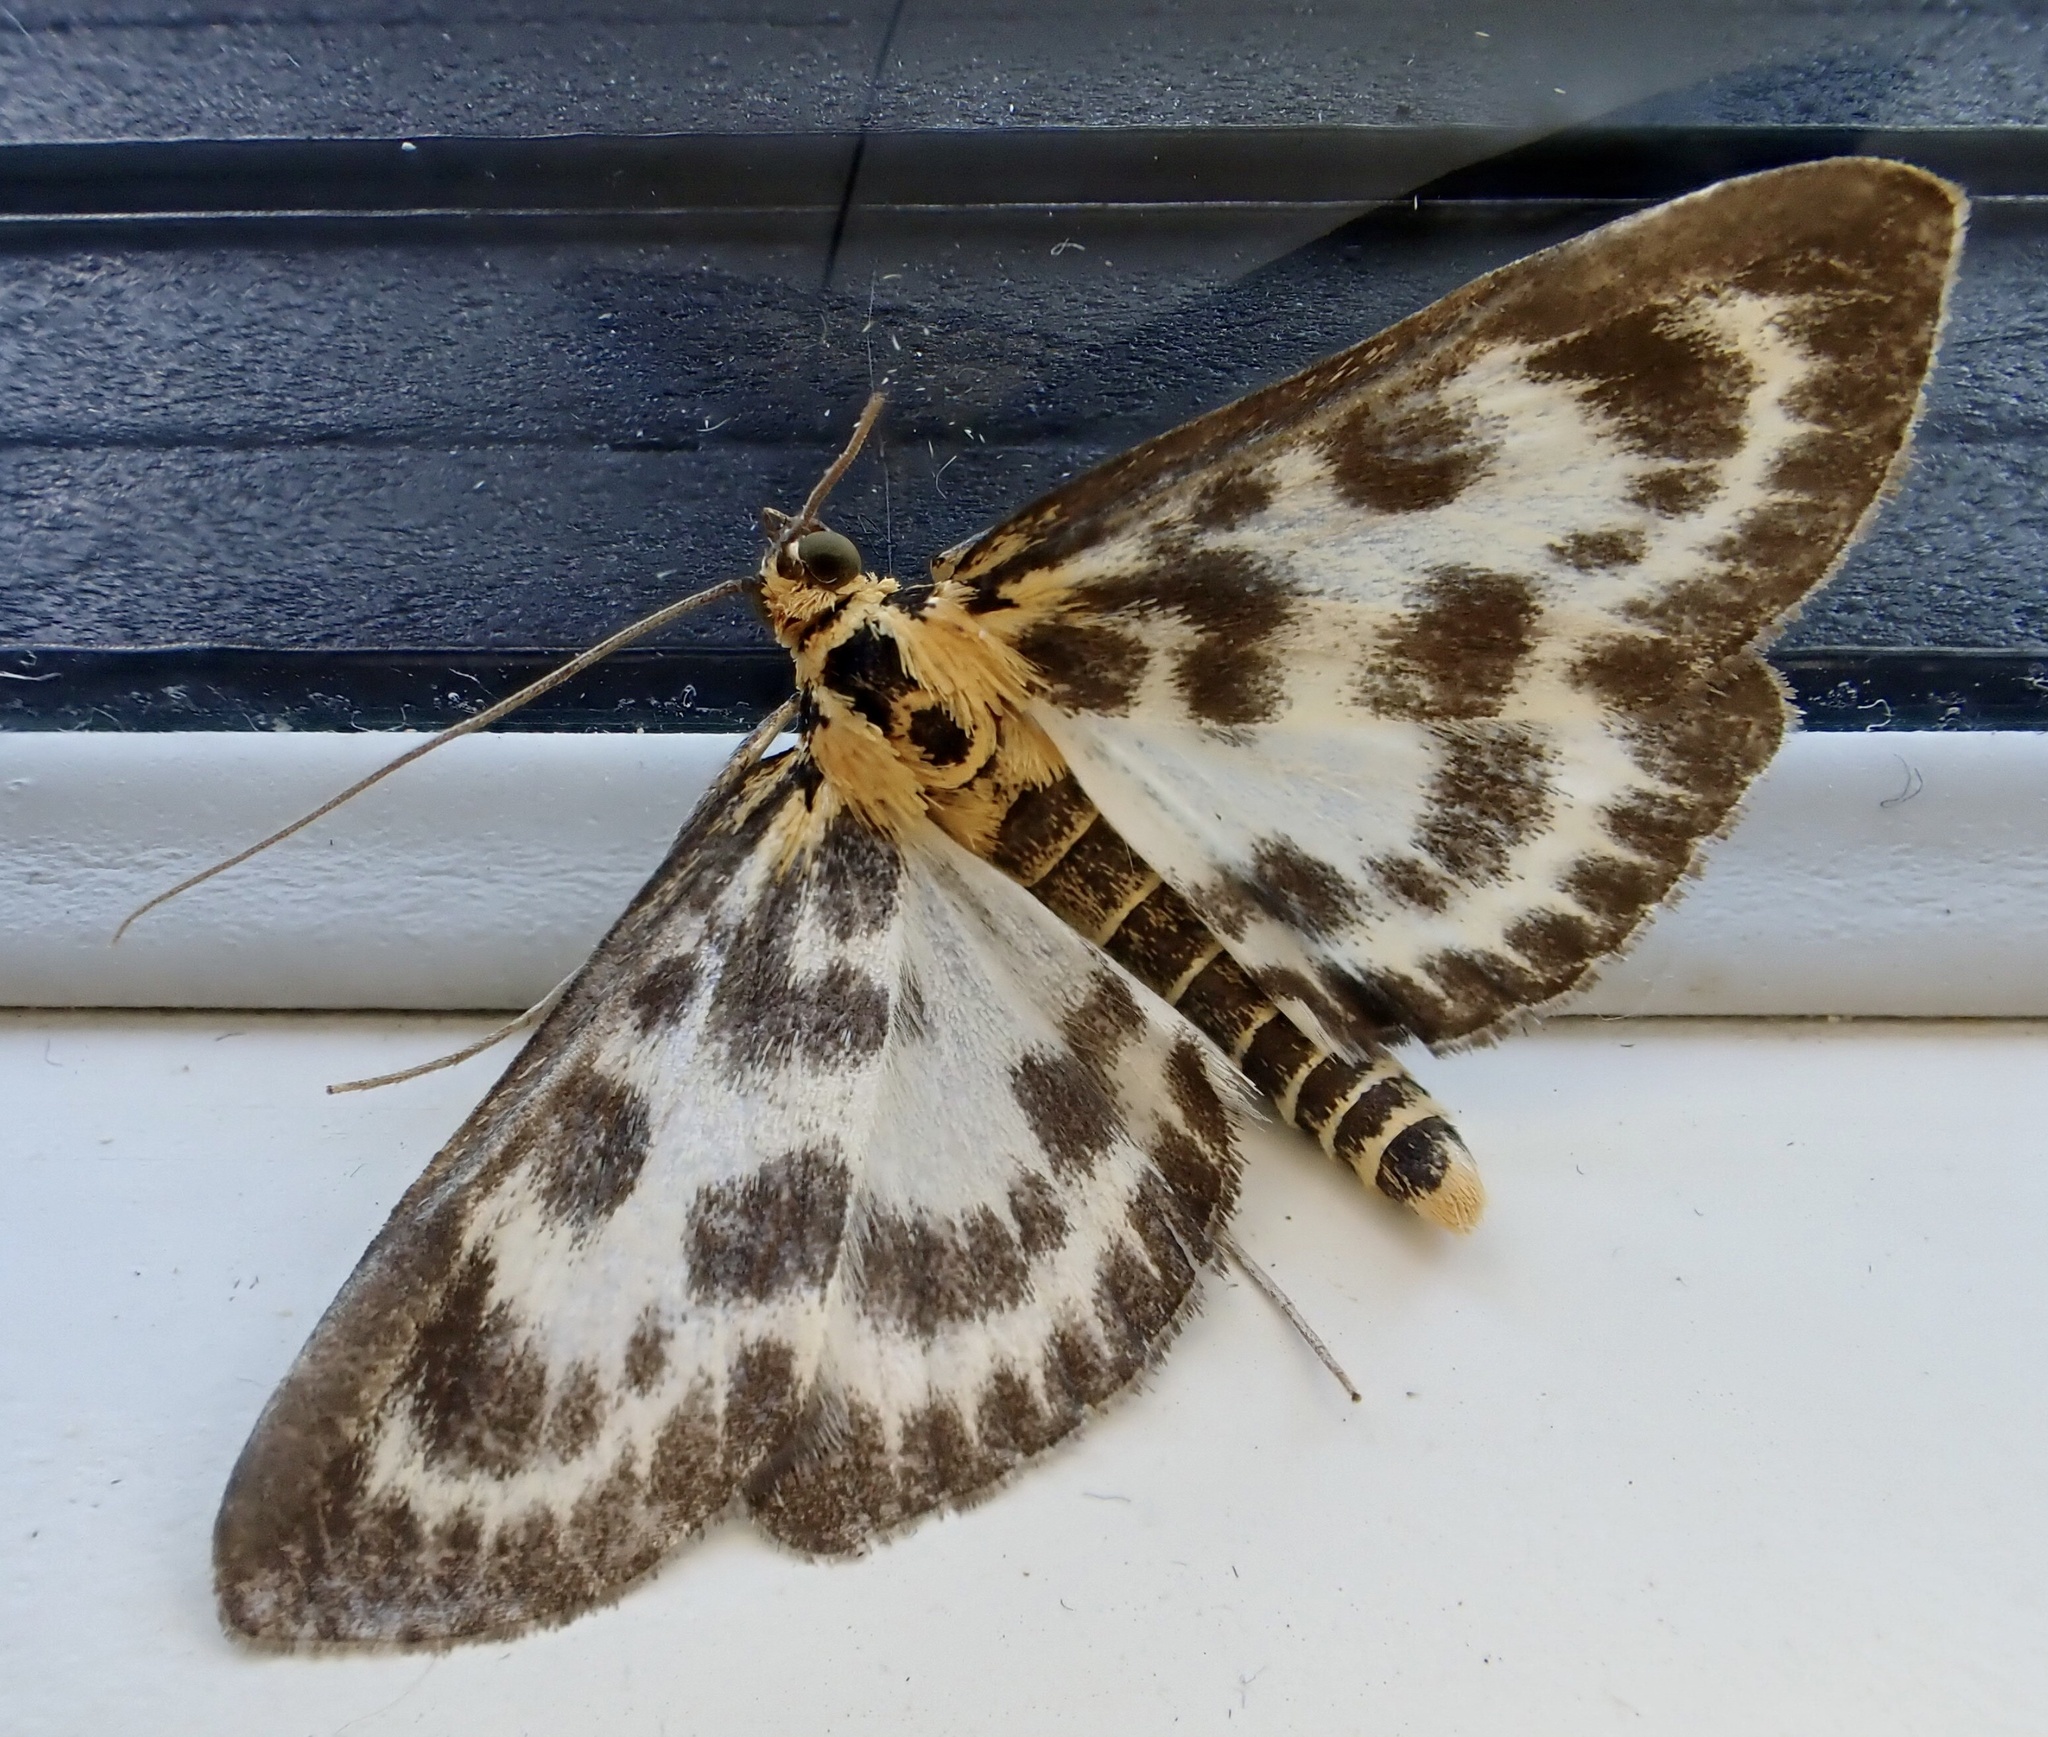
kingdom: Animalia
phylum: Arthropoda
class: Insecta
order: Lepidoptera
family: Crambidae
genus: Anania
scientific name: Anania hortulata
